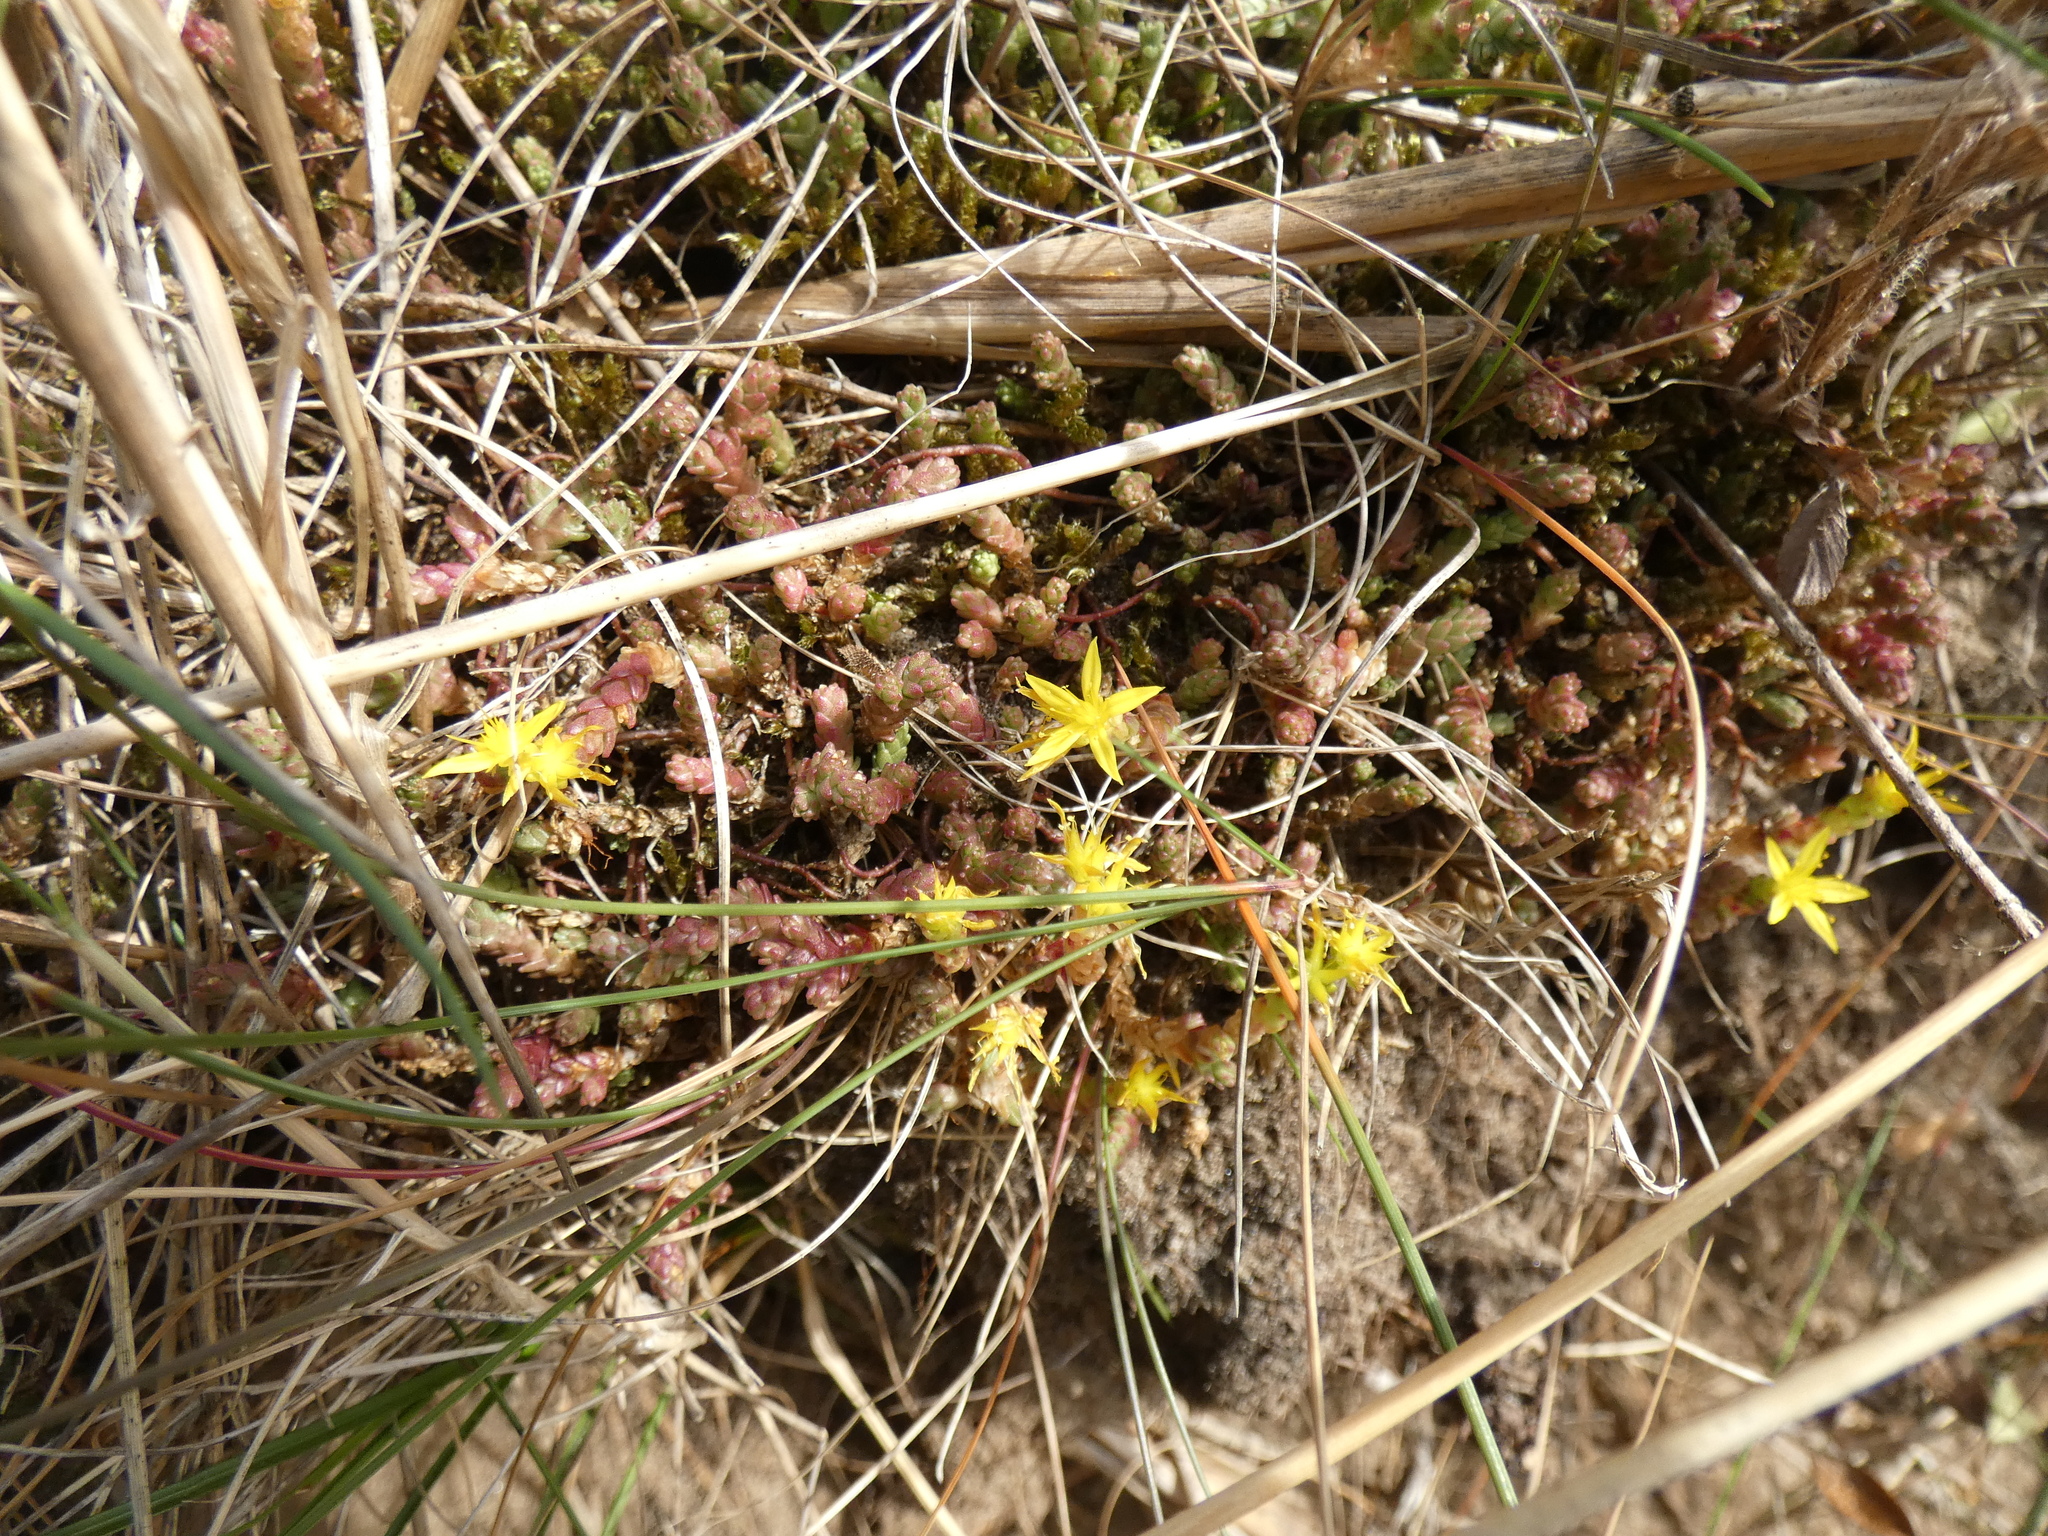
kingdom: Plantae
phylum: Tracheophyta
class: Magnoliopsida
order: Saxifragales
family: Crassulaceae
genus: Sedum
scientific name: Sedum acre
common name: Biting stonecrop
